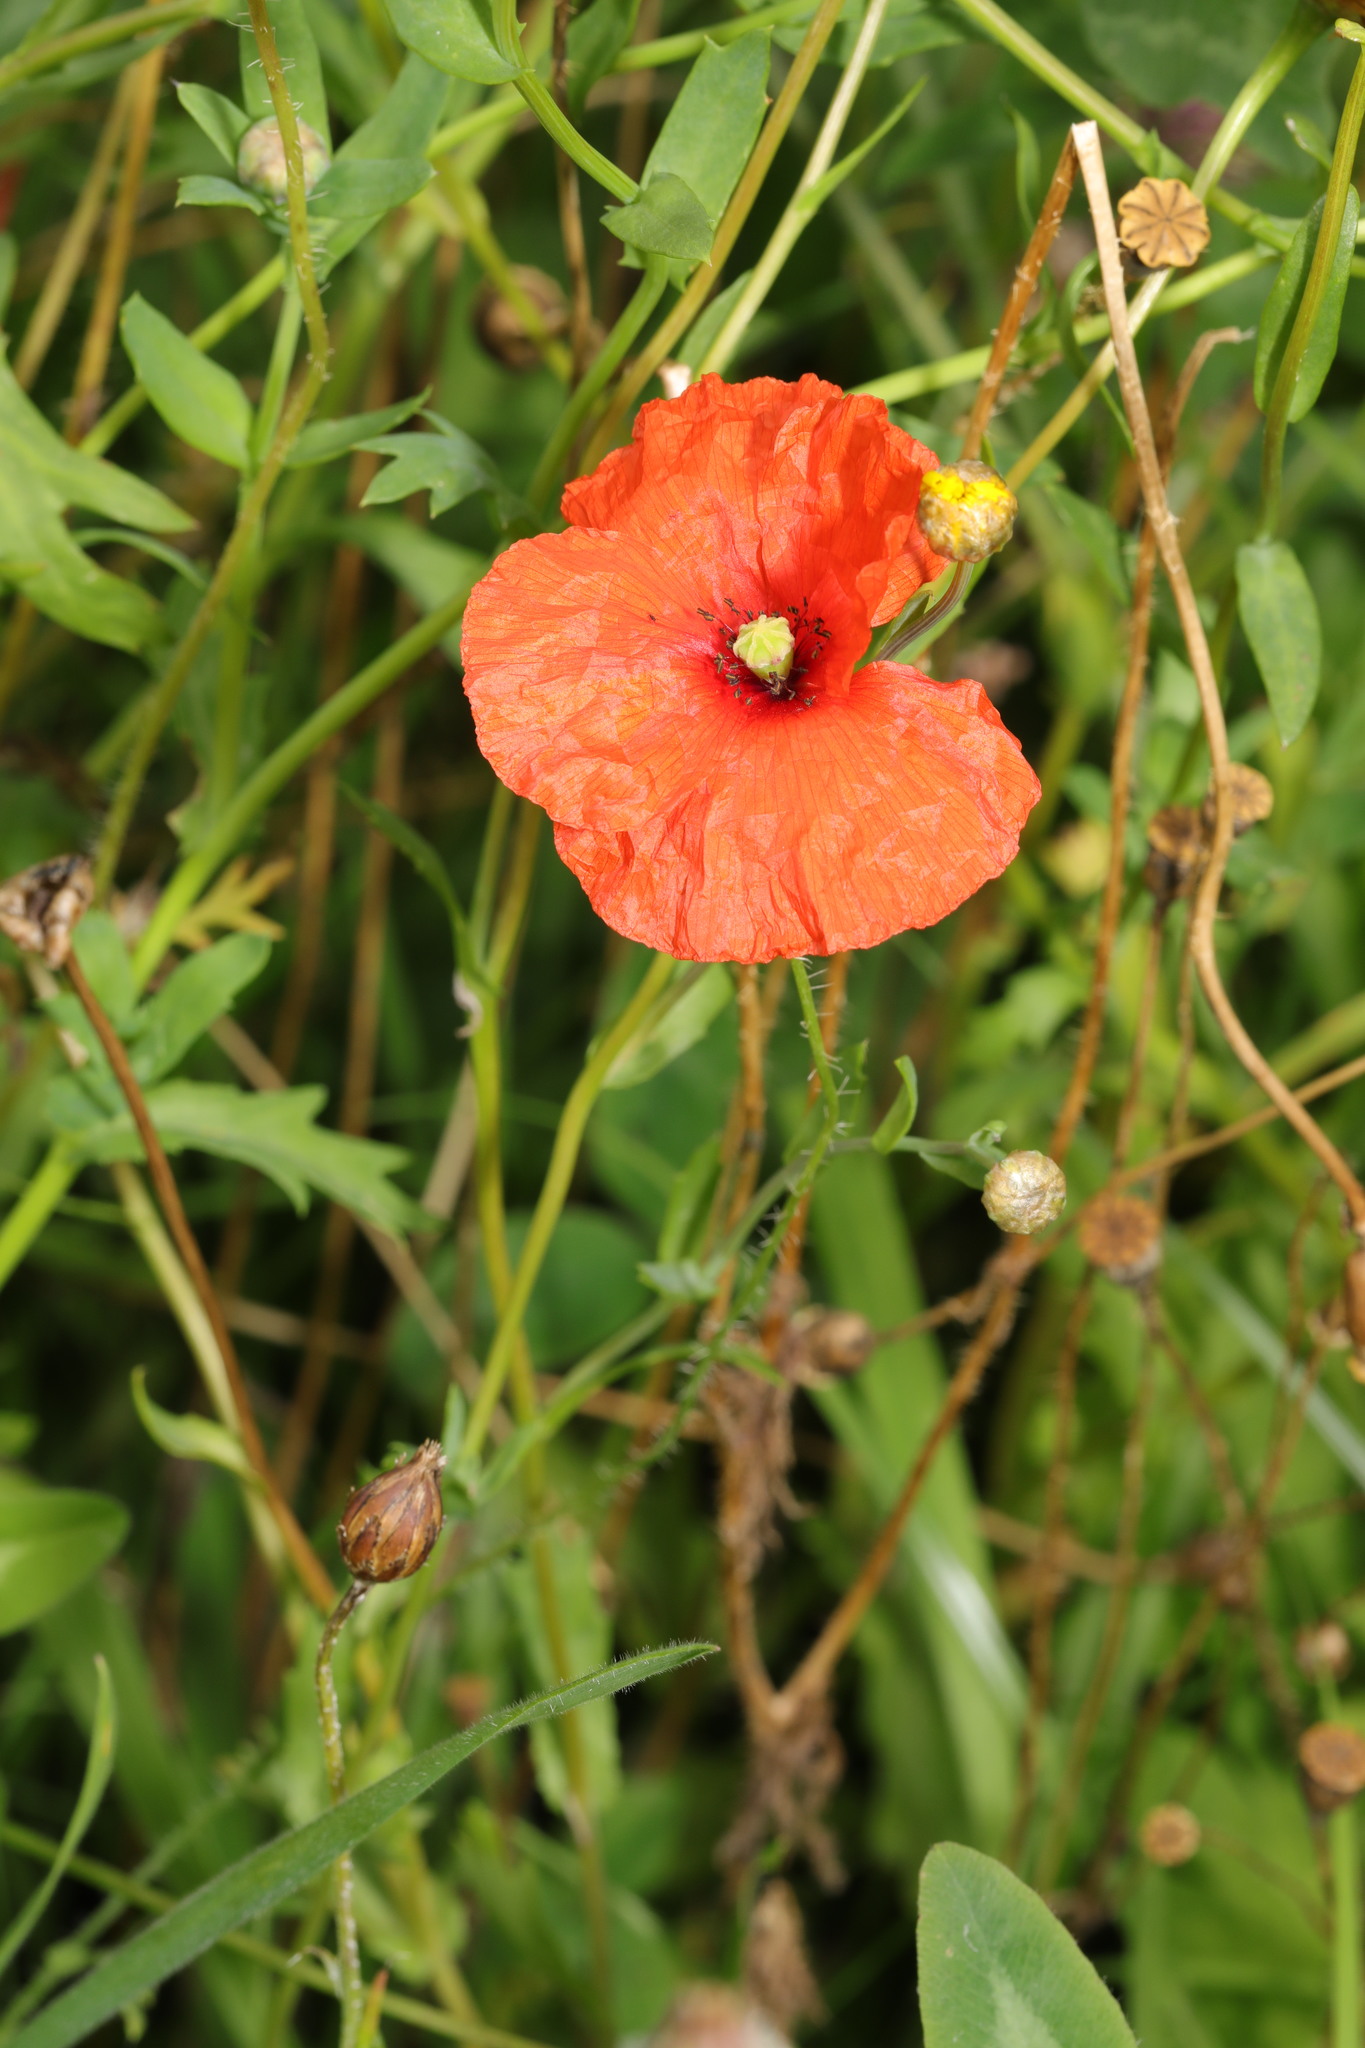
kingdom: Plantae
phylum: Tracheophyta
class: Magnoliopsida
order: Ranunculales
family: Papaveraceae
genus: Papaver
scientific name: Papaver rhoeas
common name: Corn poppy
